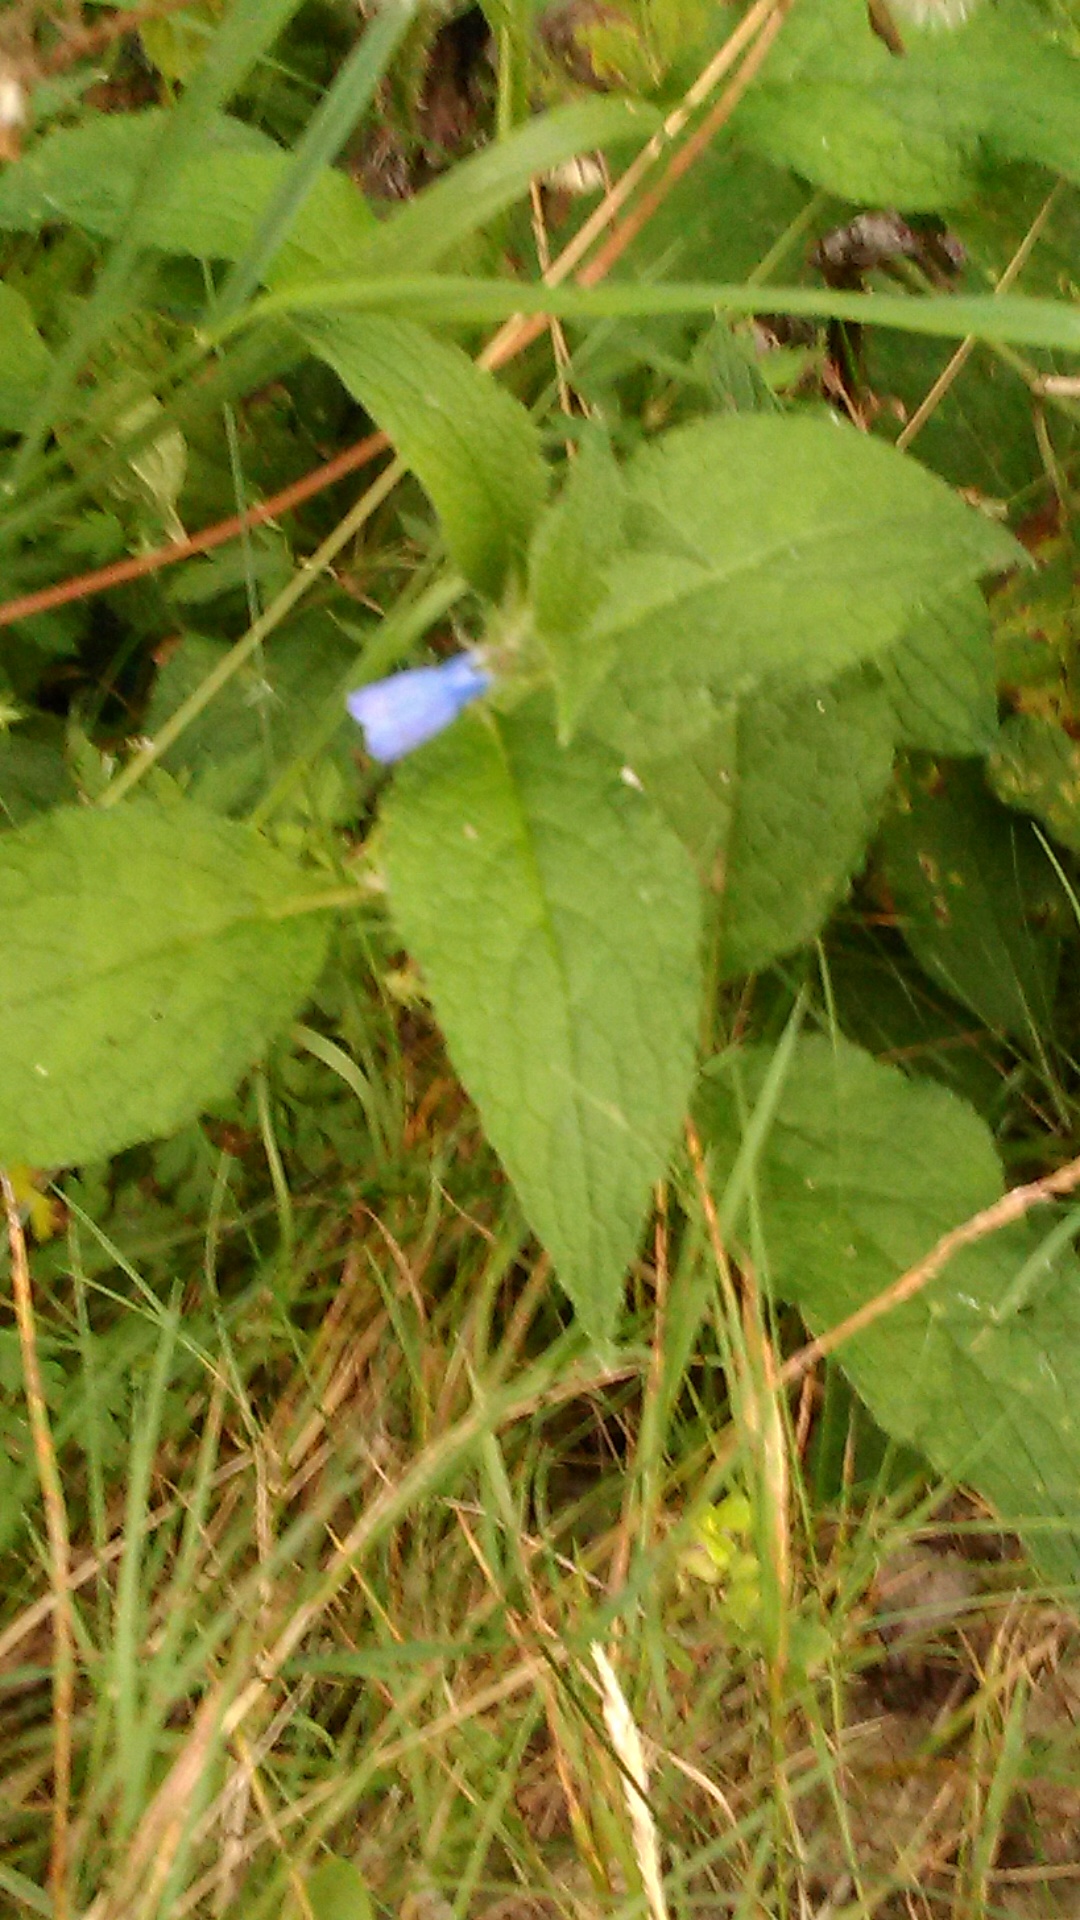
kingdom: Plantae
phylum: Tracheophyta
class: Magnoliopsida
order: Boraginales
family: Boraginaceae
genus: Symphytum
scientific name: Symphytum asperum
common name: Prickly comfrey
